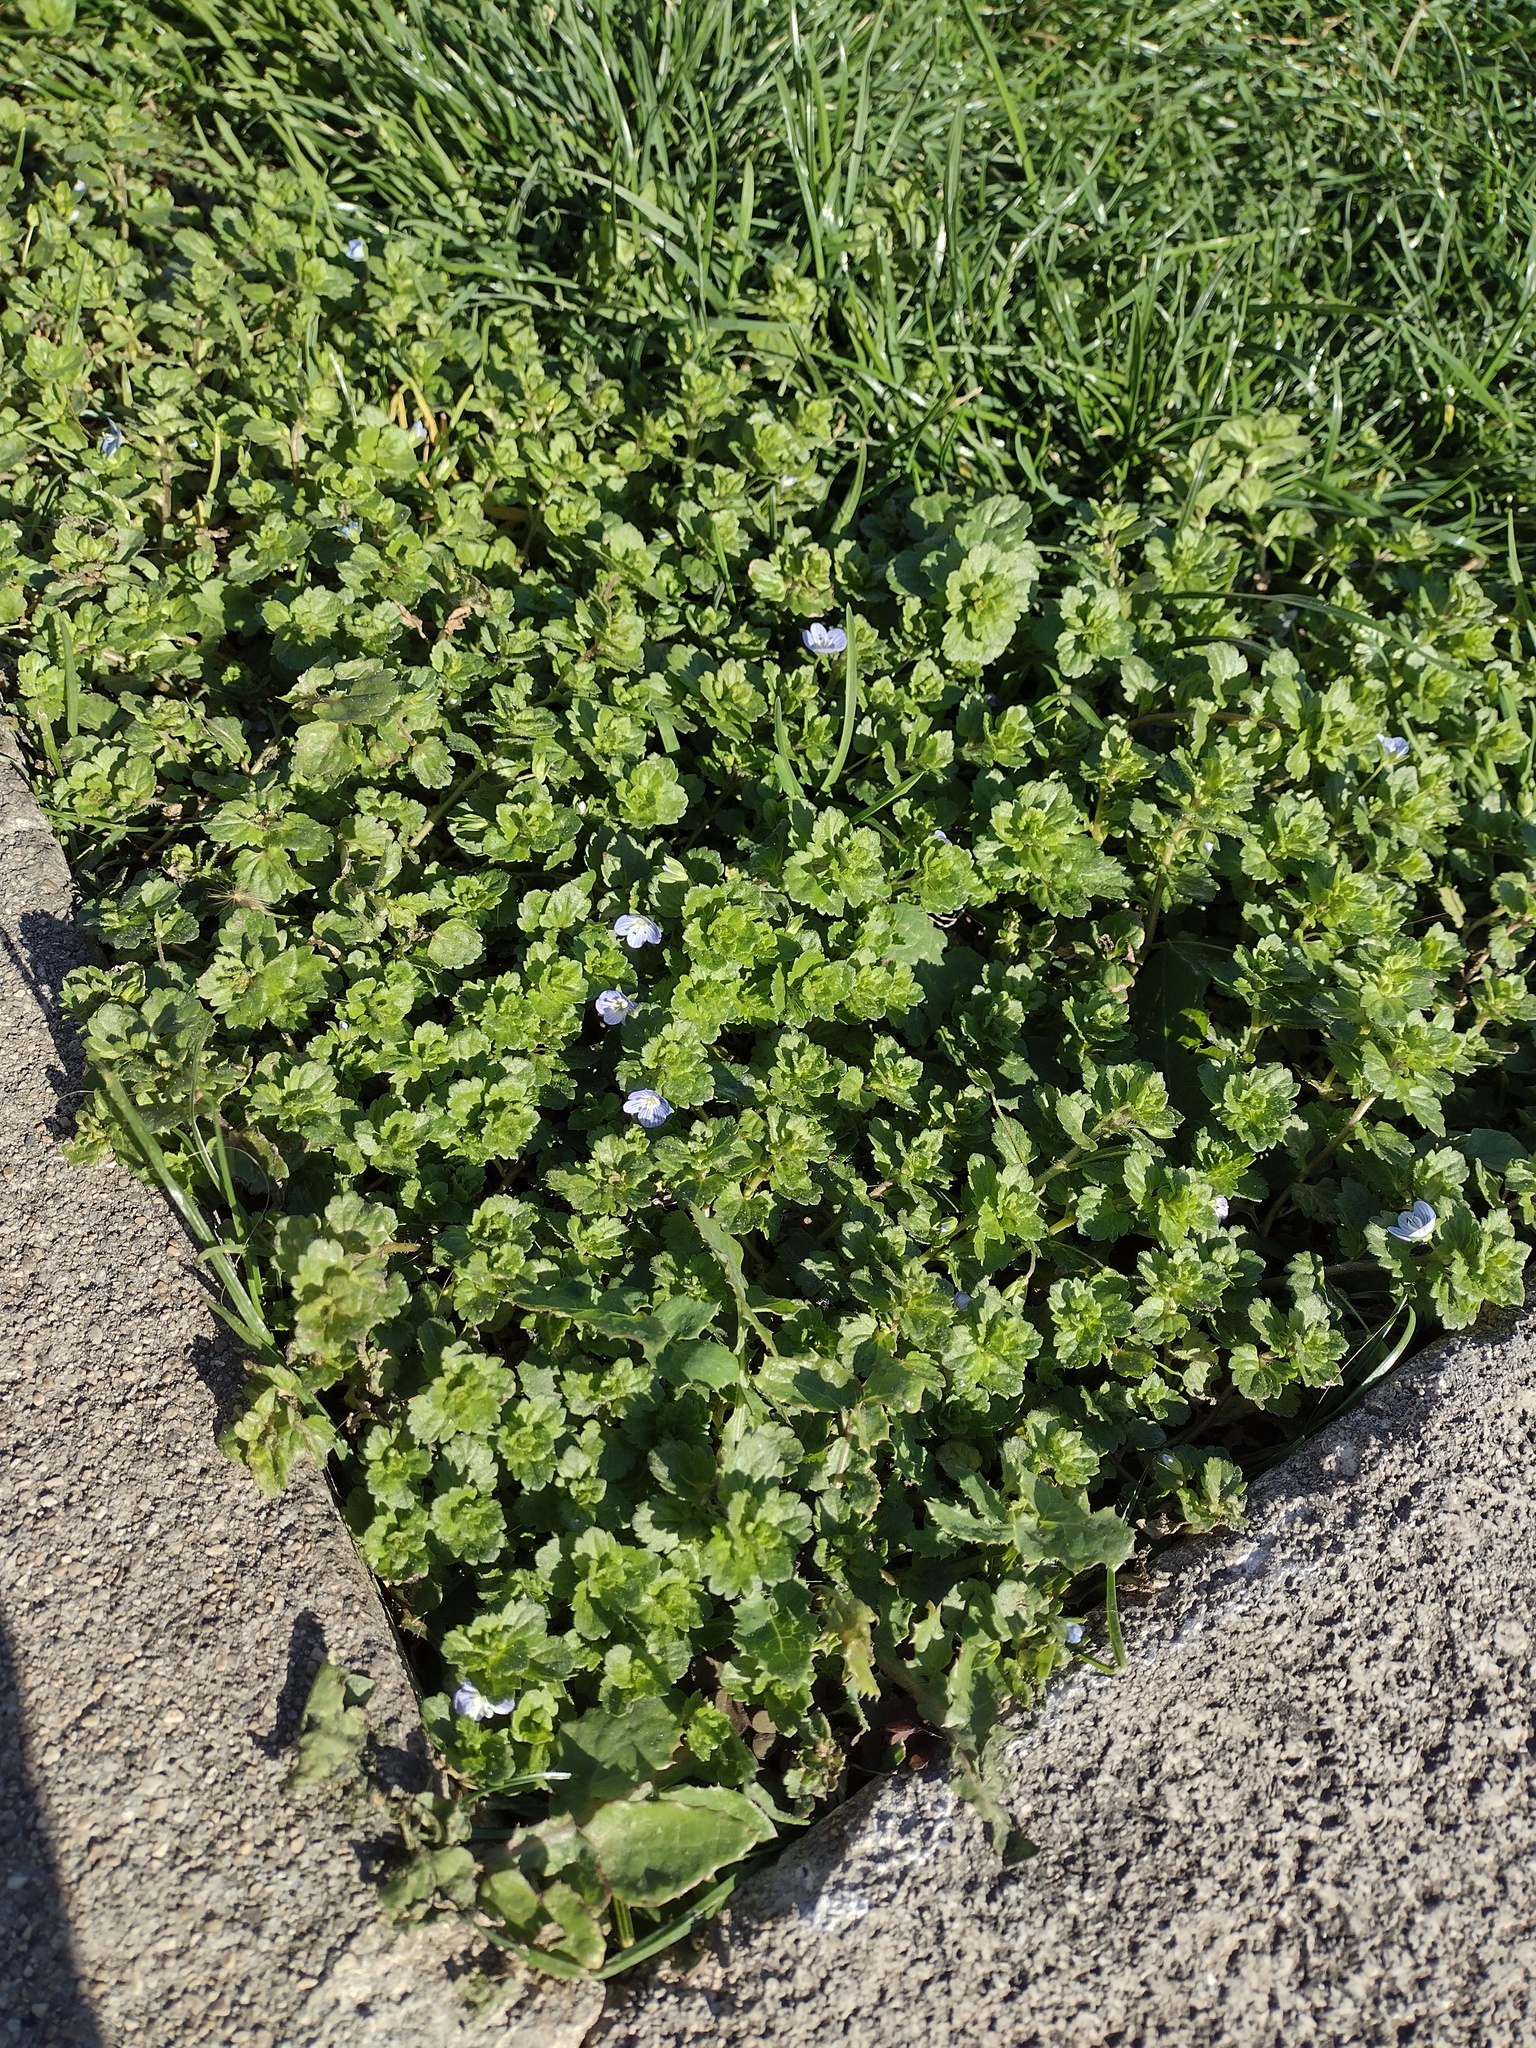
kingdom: Plantae
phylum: Tracheophyta
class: Magnoliopsida
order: Lamiales
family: Plantaginaceae
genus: Veronica
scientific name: Veronica persica
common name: Common field-speedwell
